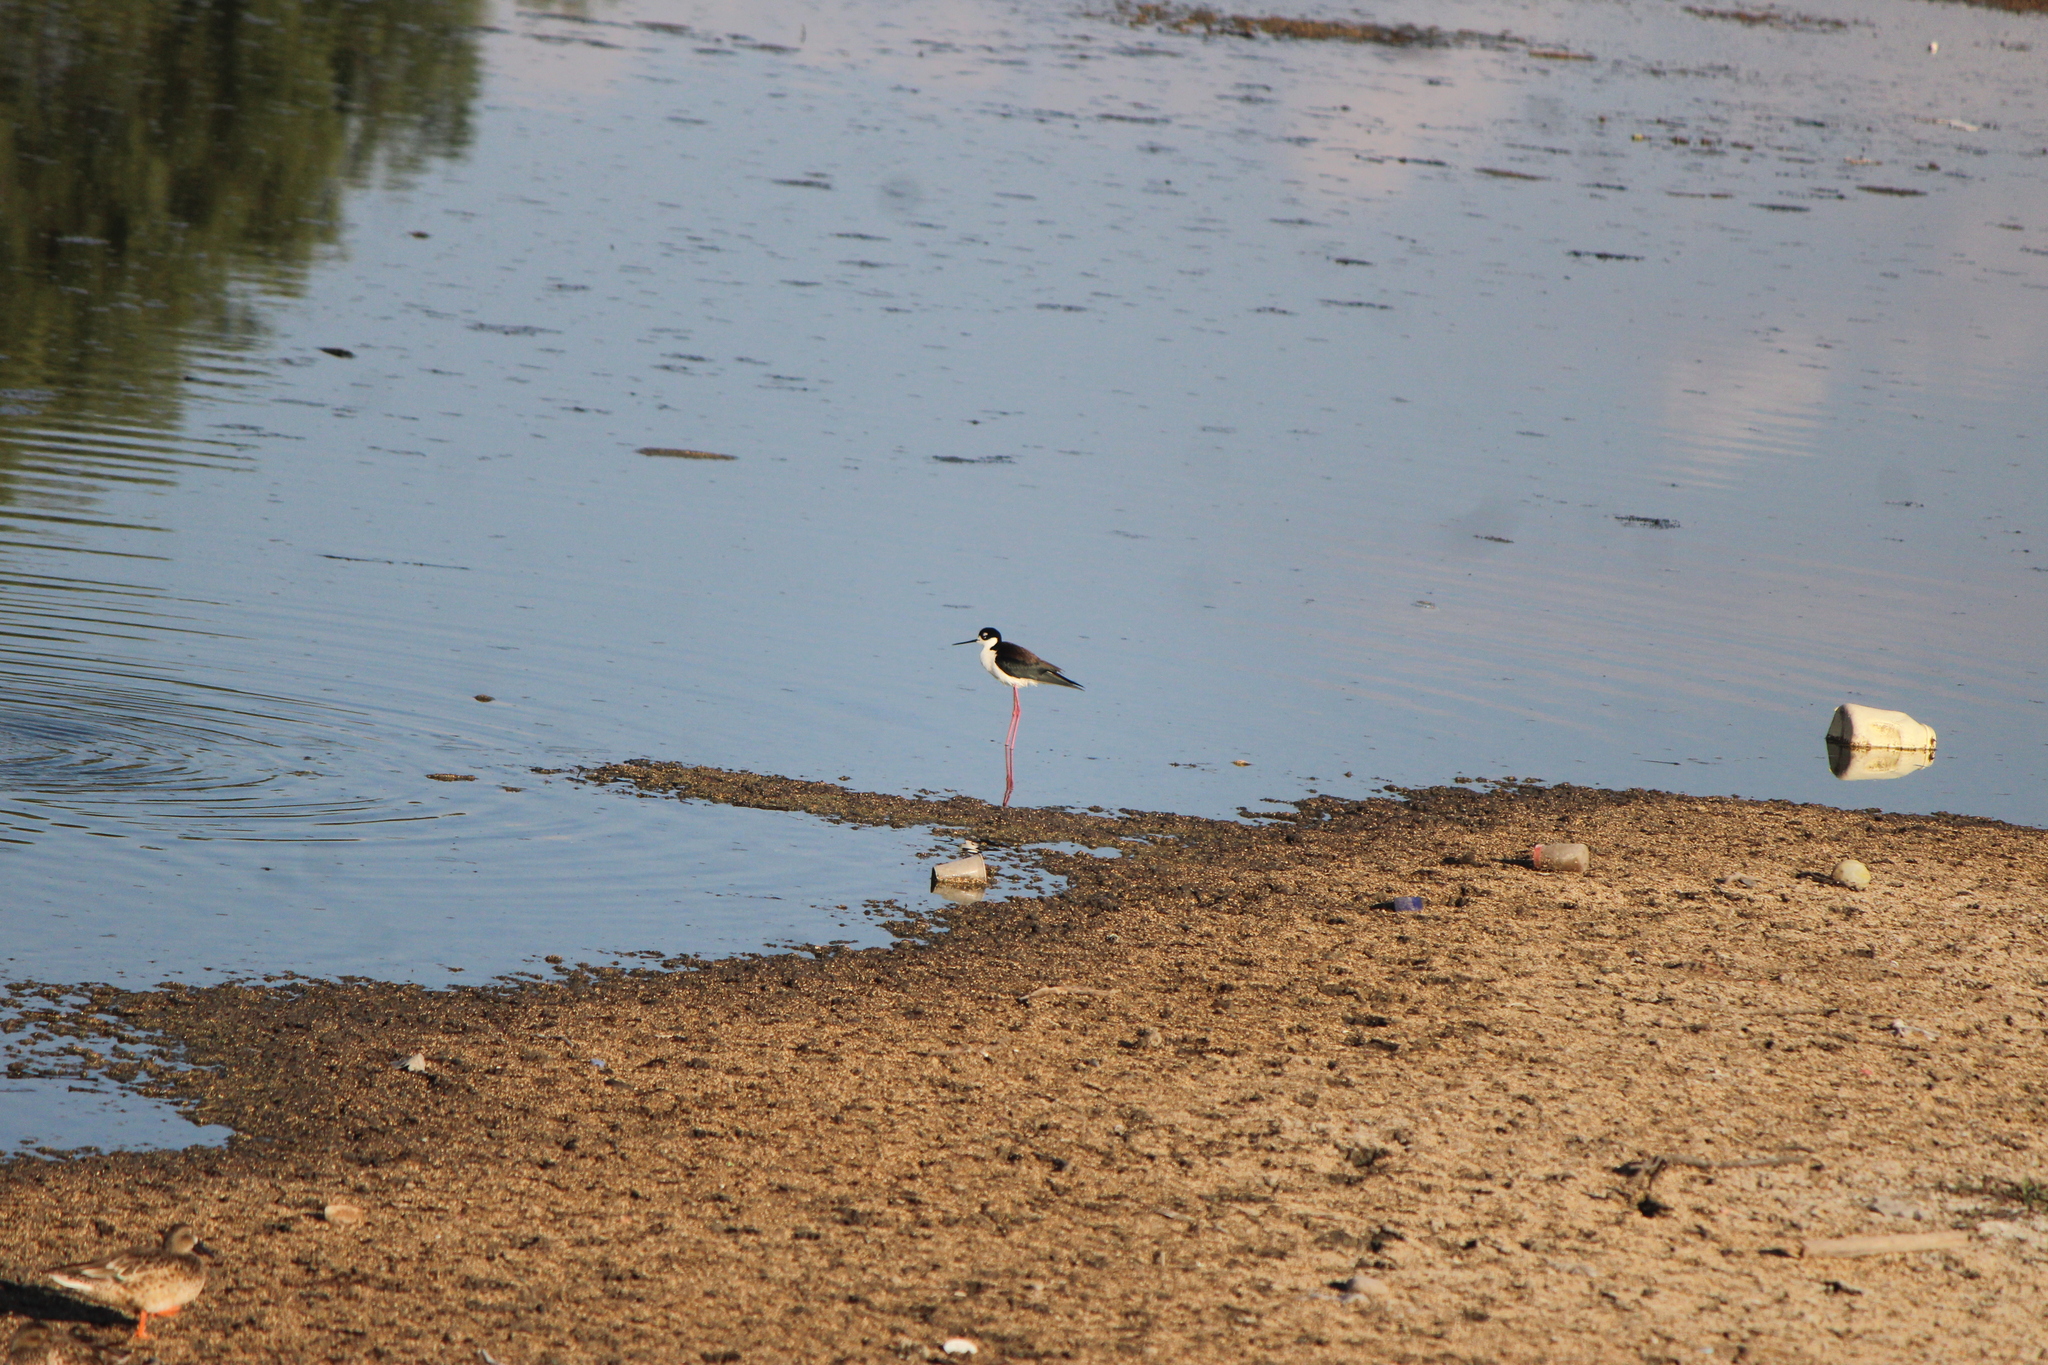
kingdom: Animalia
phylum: Chordata
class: Aves
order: Charadriiformes
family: Recurvirostridae
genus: Himantopus
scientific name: Himantopus mexicanus
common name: Black-necked stilt
